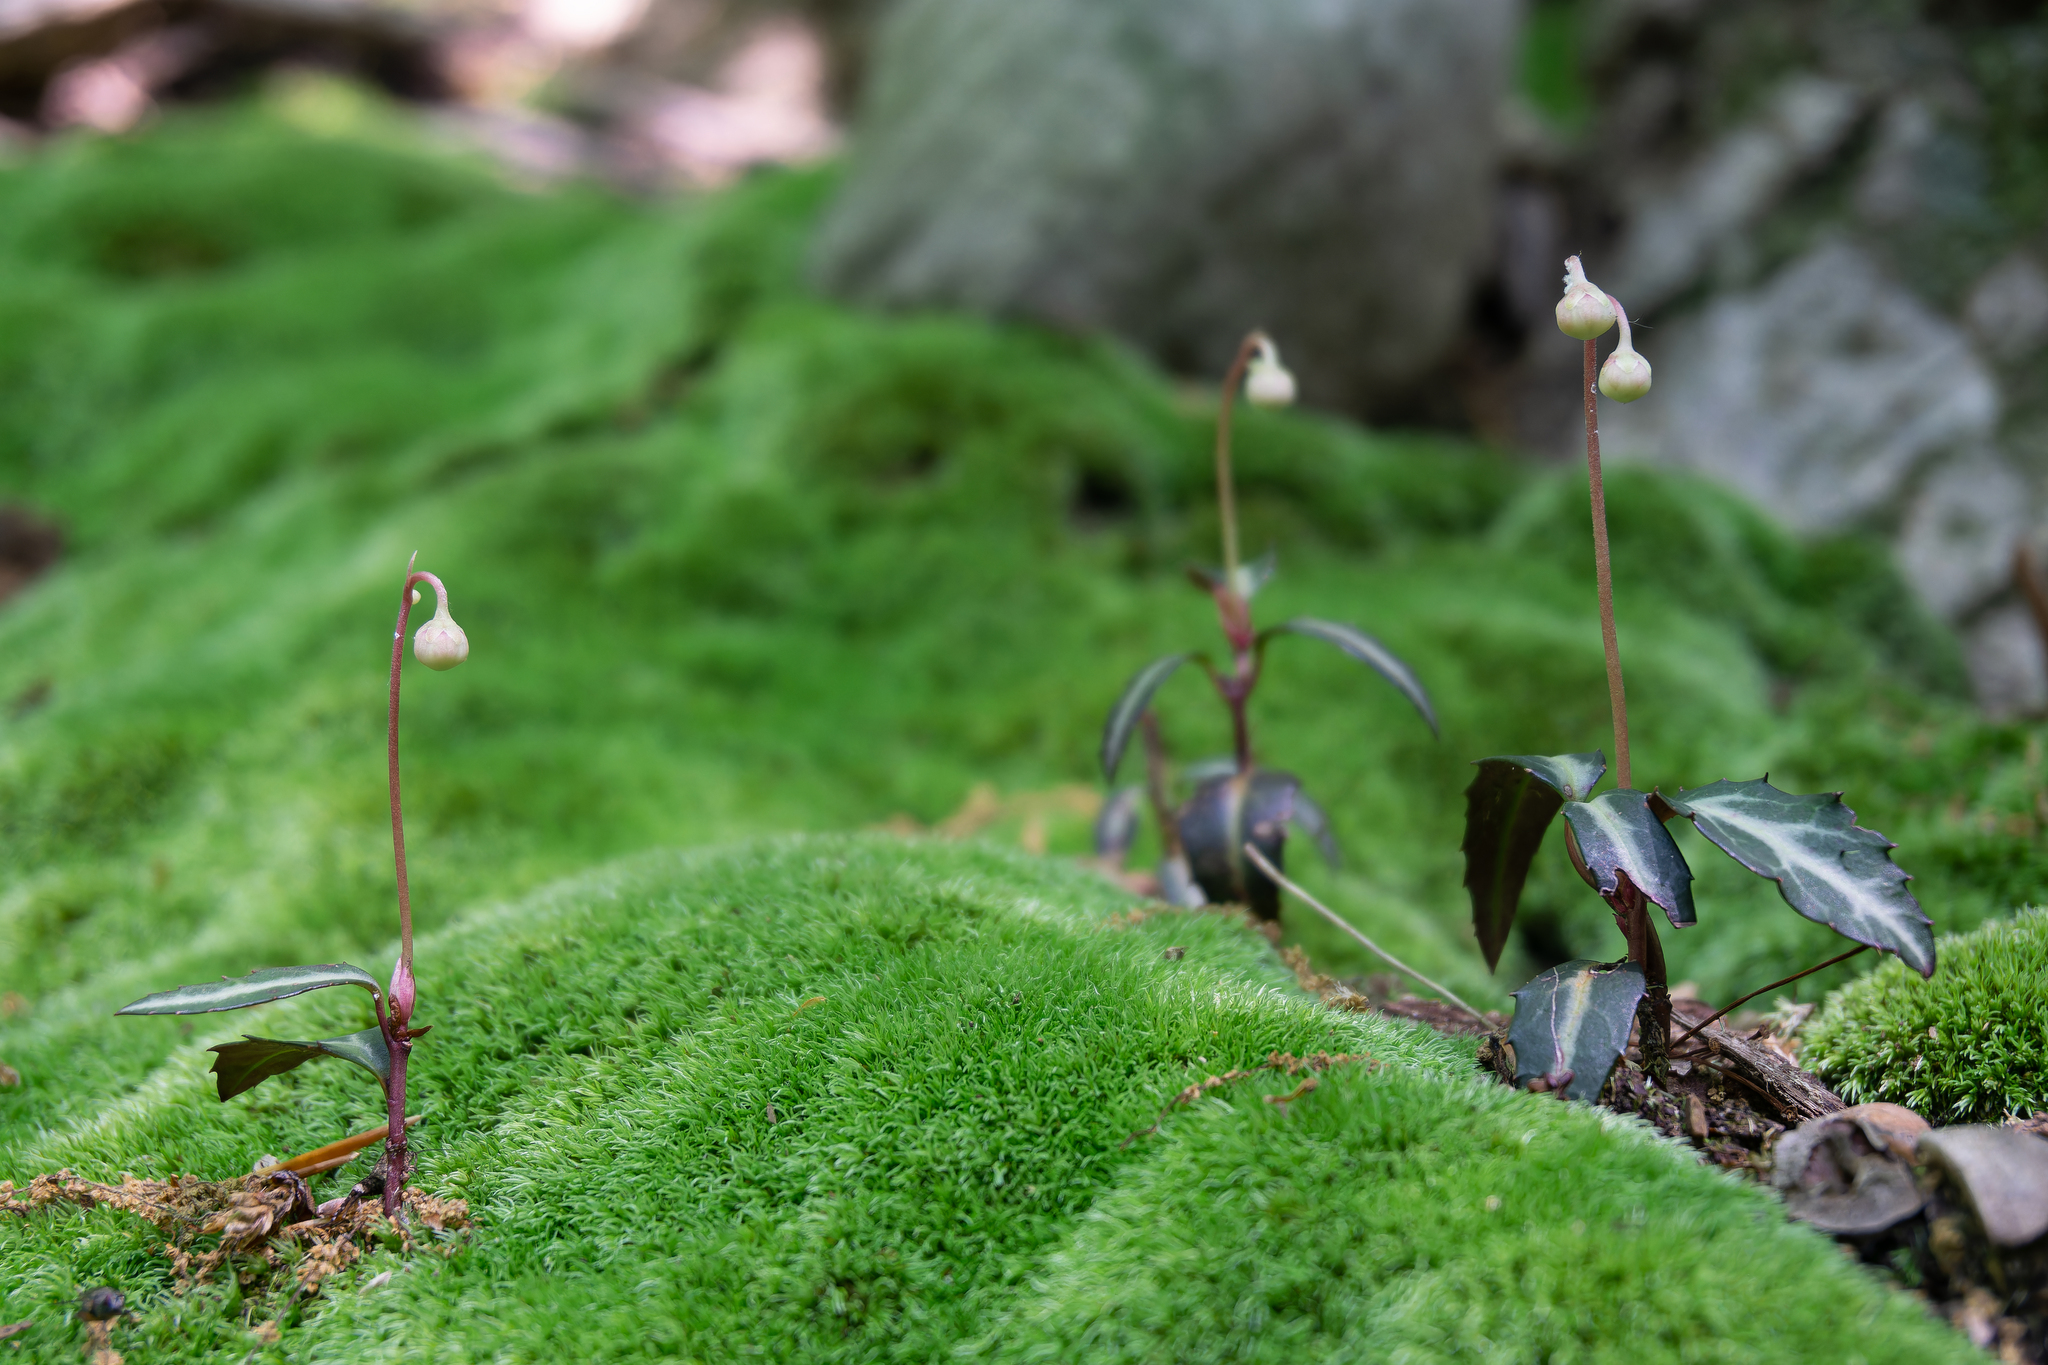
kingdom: Plantae
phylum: Tracheophyta
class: Magnoliopsida
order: Ericales
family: Ericaceae
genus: Chimaphila
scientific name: Chimaphila maculata
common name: Spotted pipsissewa
